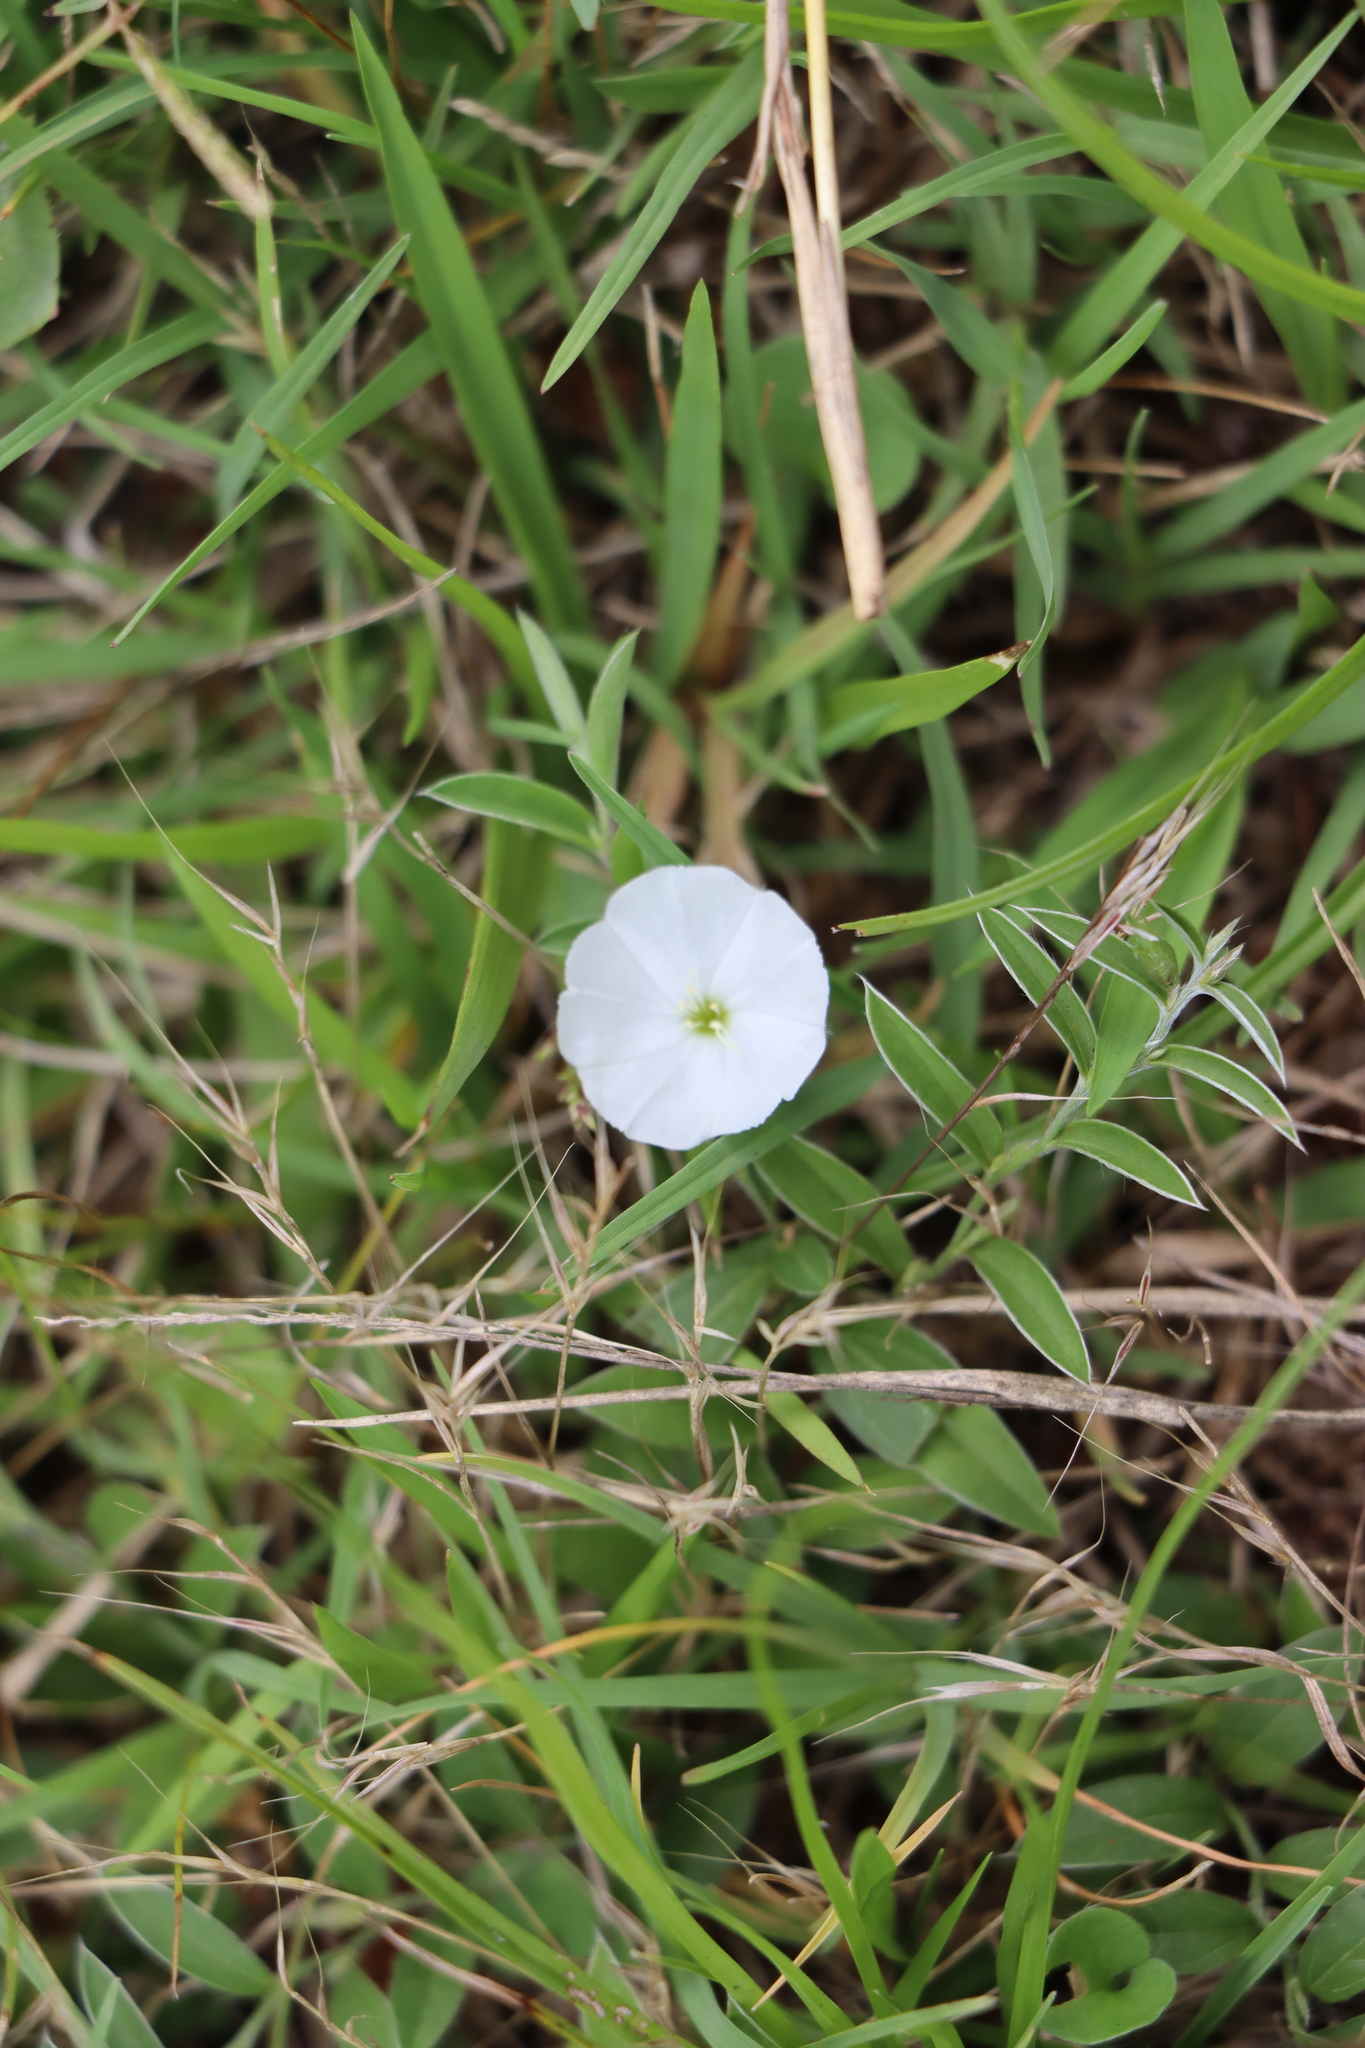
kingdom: Plantae
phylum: Tracheophyta
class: Magnoliopsida
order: Solanales
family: Convolvulaceae
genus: Evolvulus
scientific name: Evolvulus sericeus
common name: Blue dots
